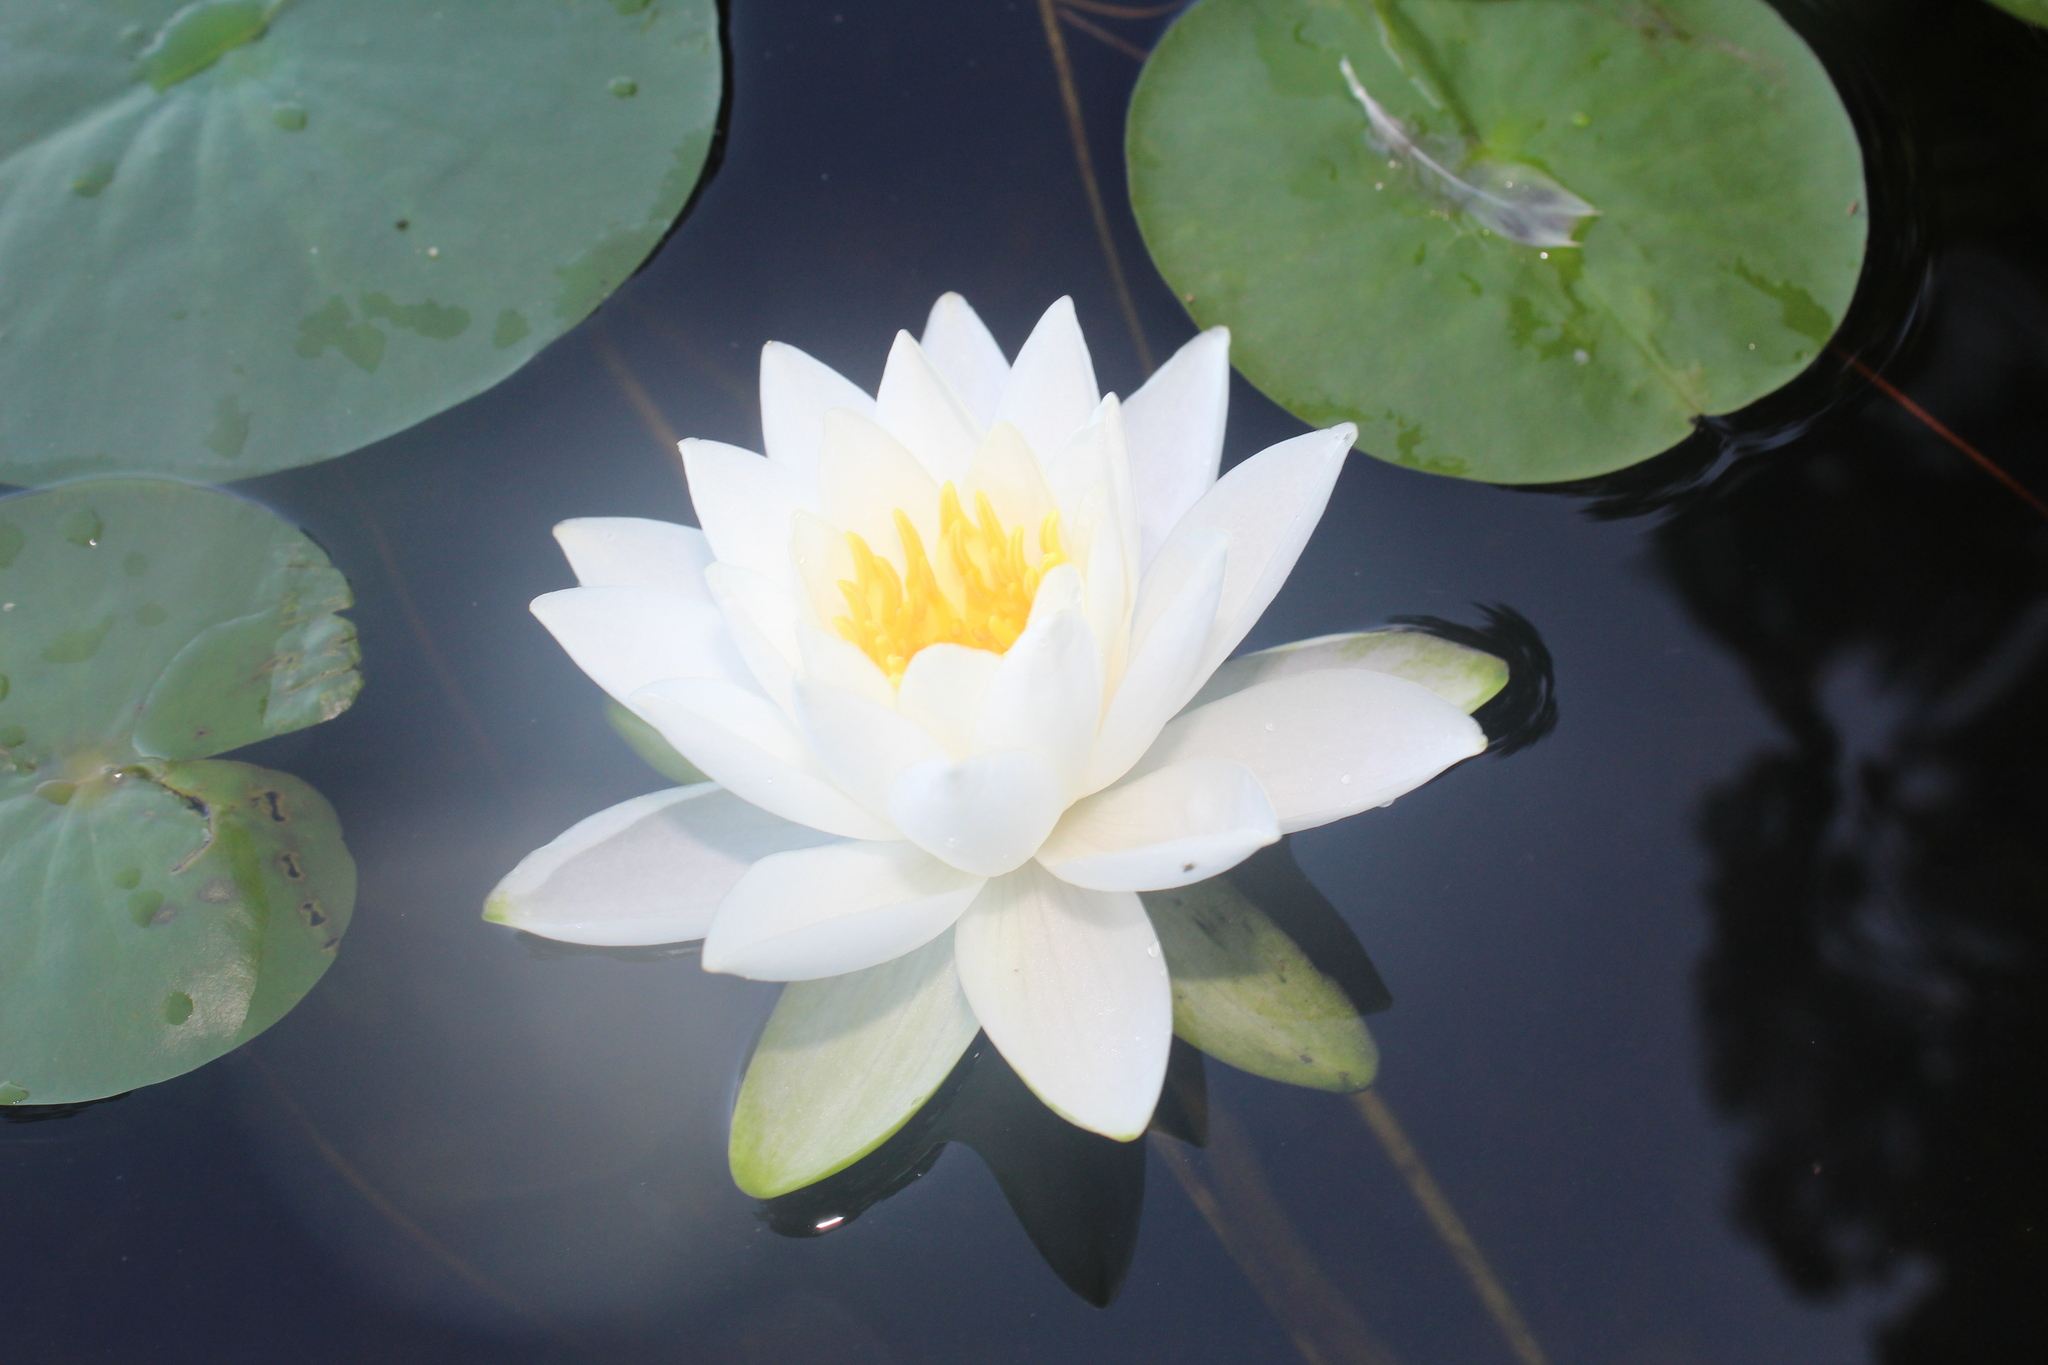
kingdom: Plantae
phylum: Tracheophyta
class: Magnoliopsida
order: Nymphaeales
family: Nymphaeaceae
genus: Nymphaea
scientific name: Nymphaea odorata
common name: Fragrant water-lily
